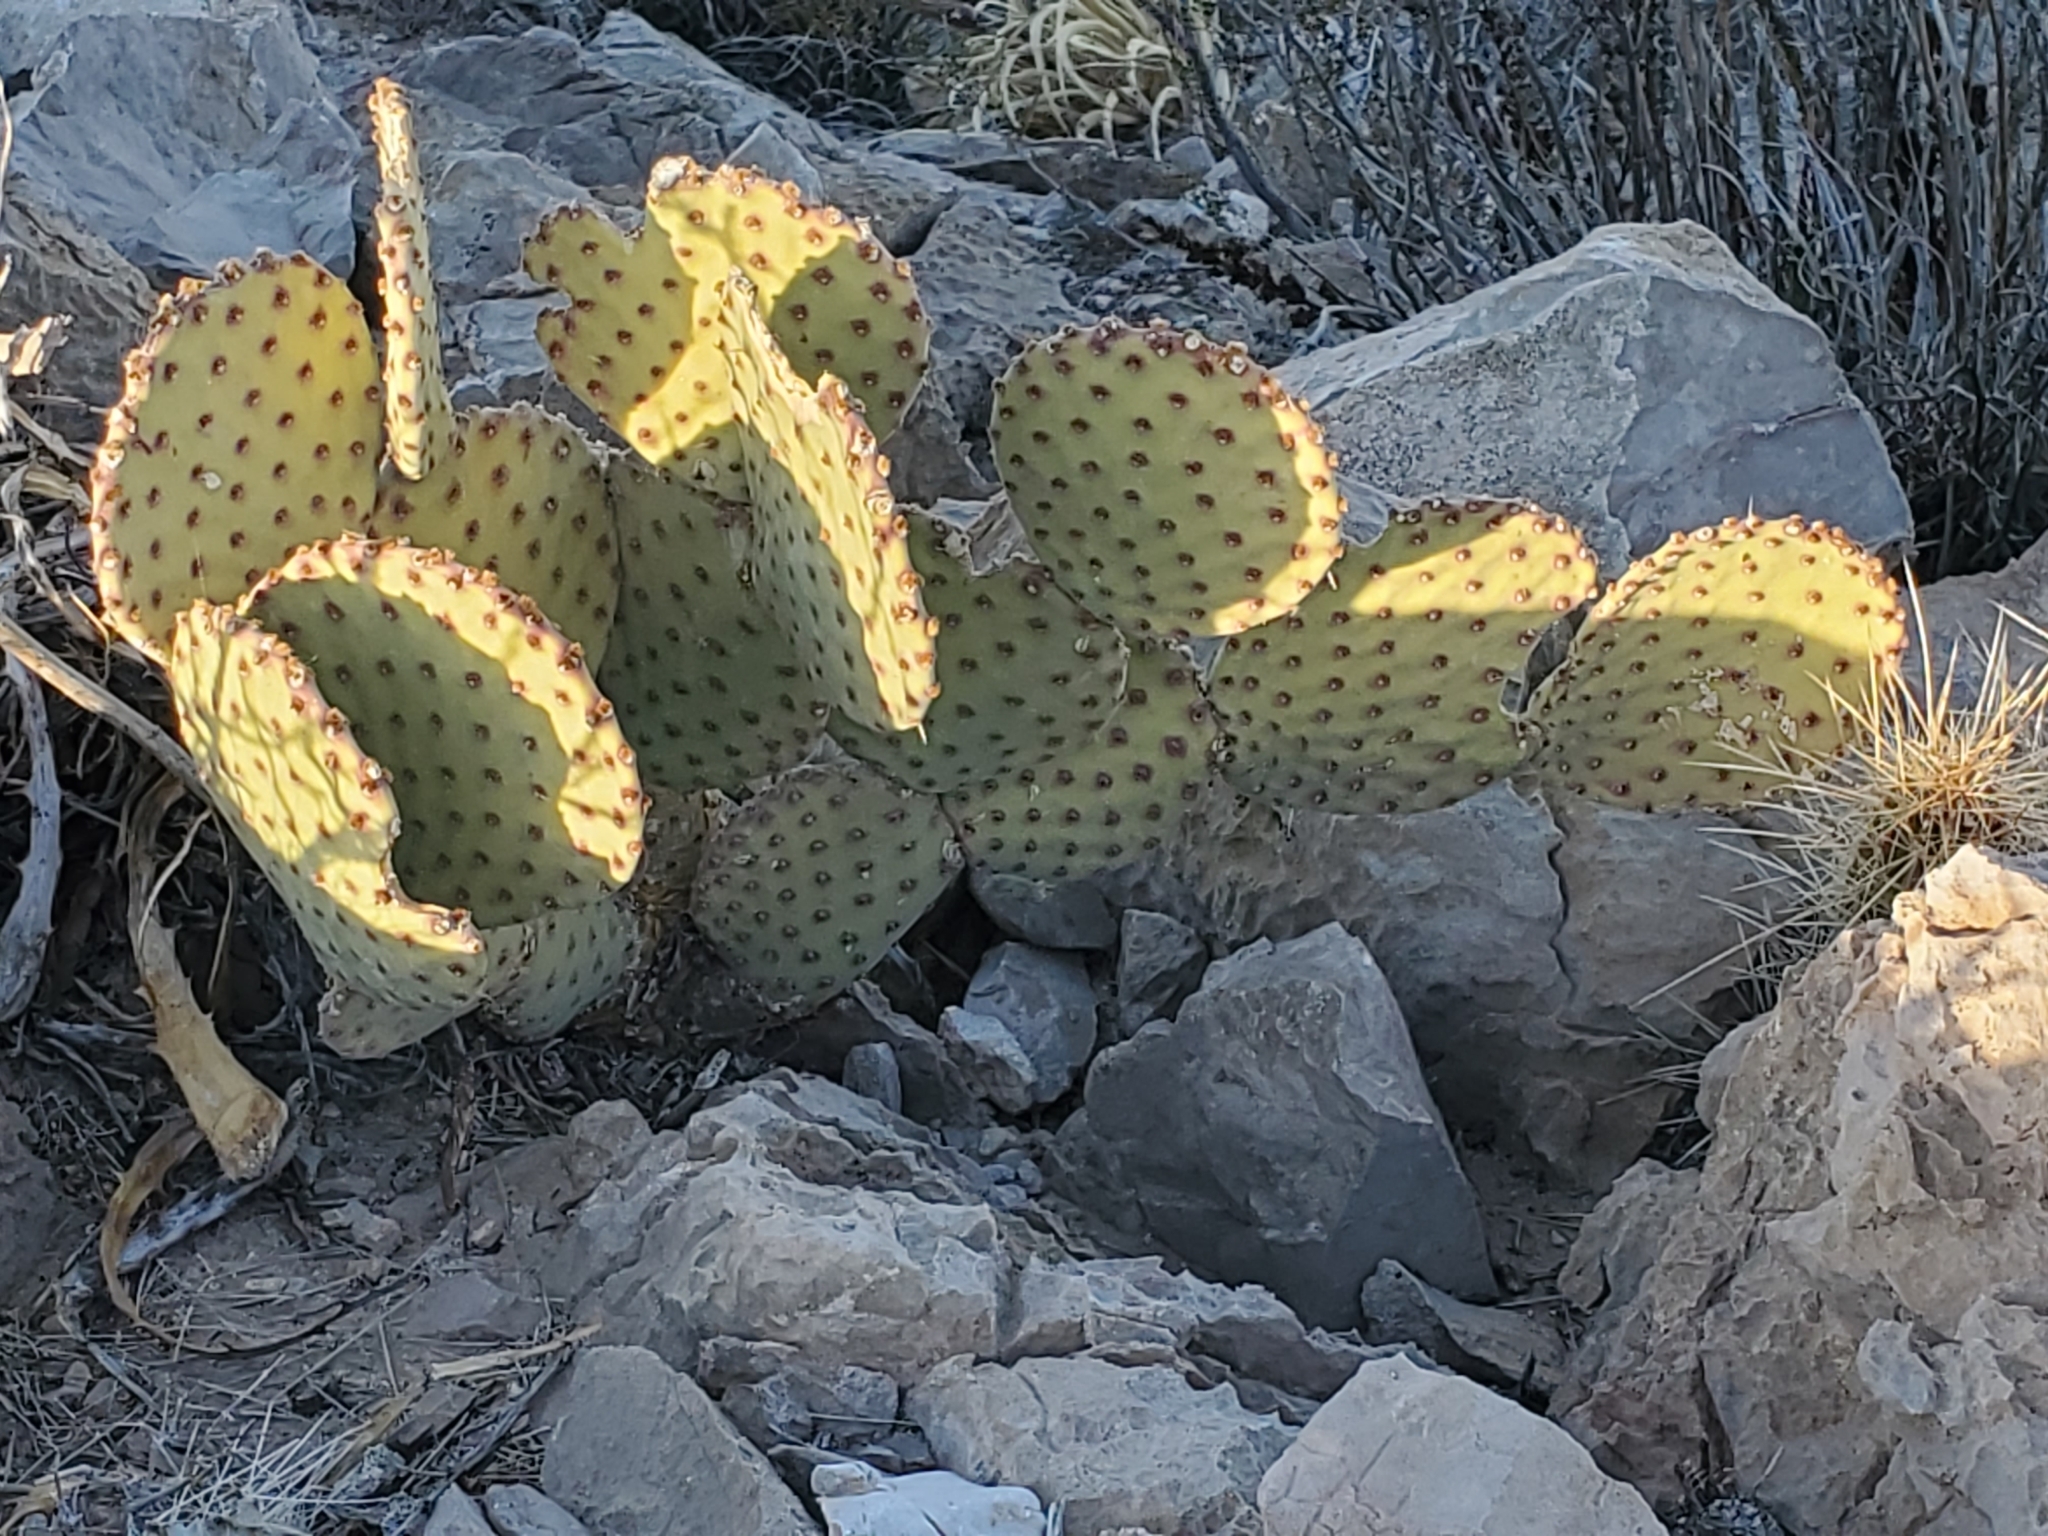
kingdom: Plantae
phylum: Tracheophyta
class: Magnoliopsida
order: Caryophyllales
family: Cactaceae
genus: Opuntia
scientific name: Opuntia rufida
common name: Blind pricklypear
